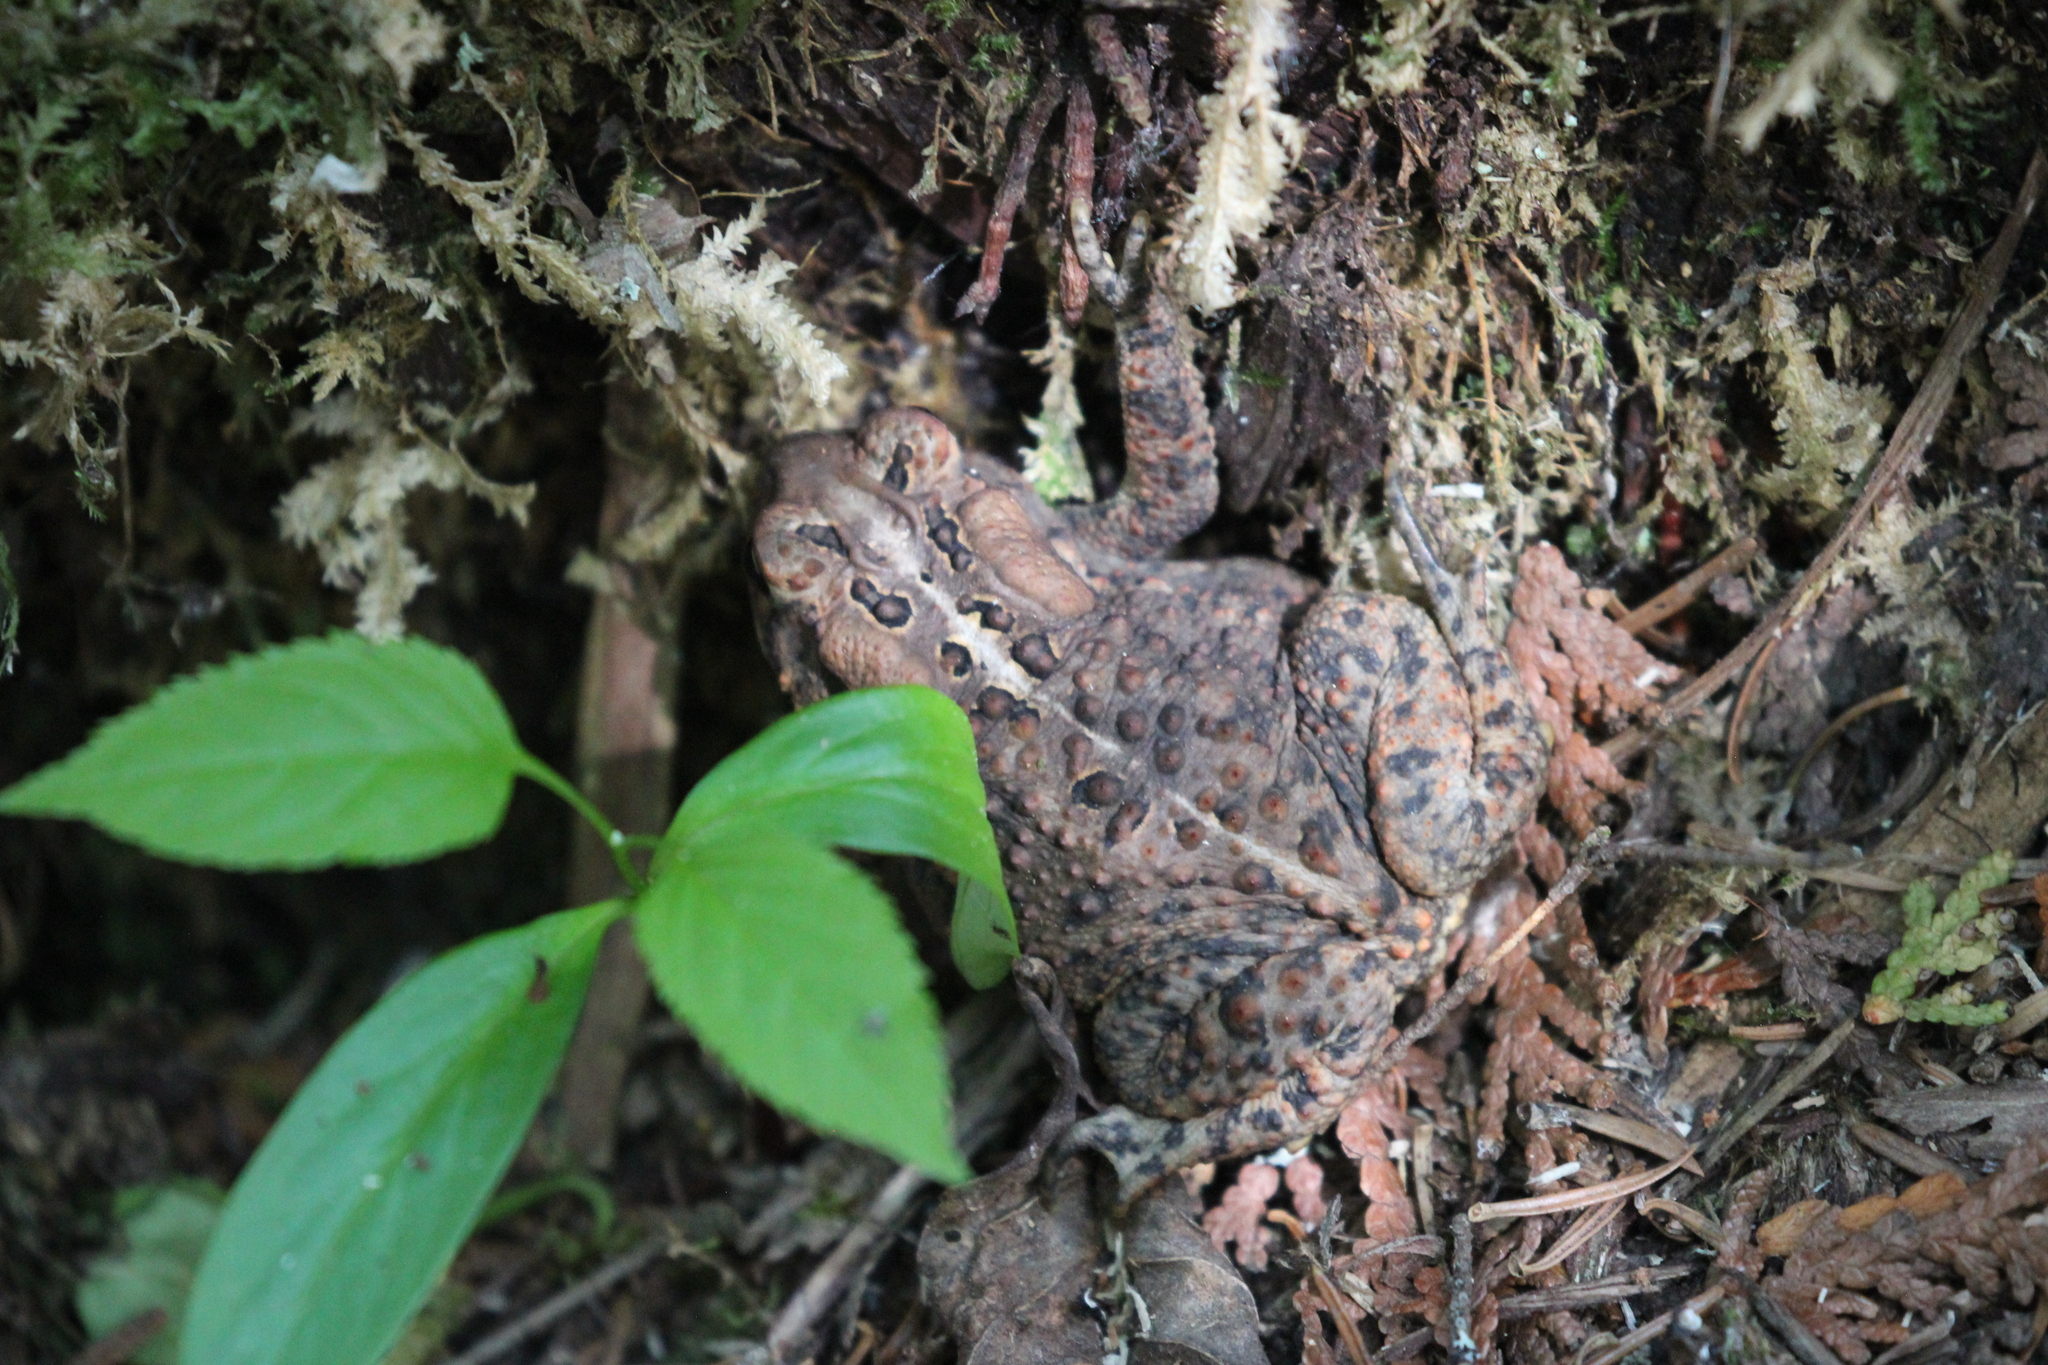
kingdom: Animalia
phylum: Chordata
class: Amphibia
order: Anura
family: Bufonidae
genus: Anaxyrus
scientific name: Anaxyrus americanus
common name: American toad
